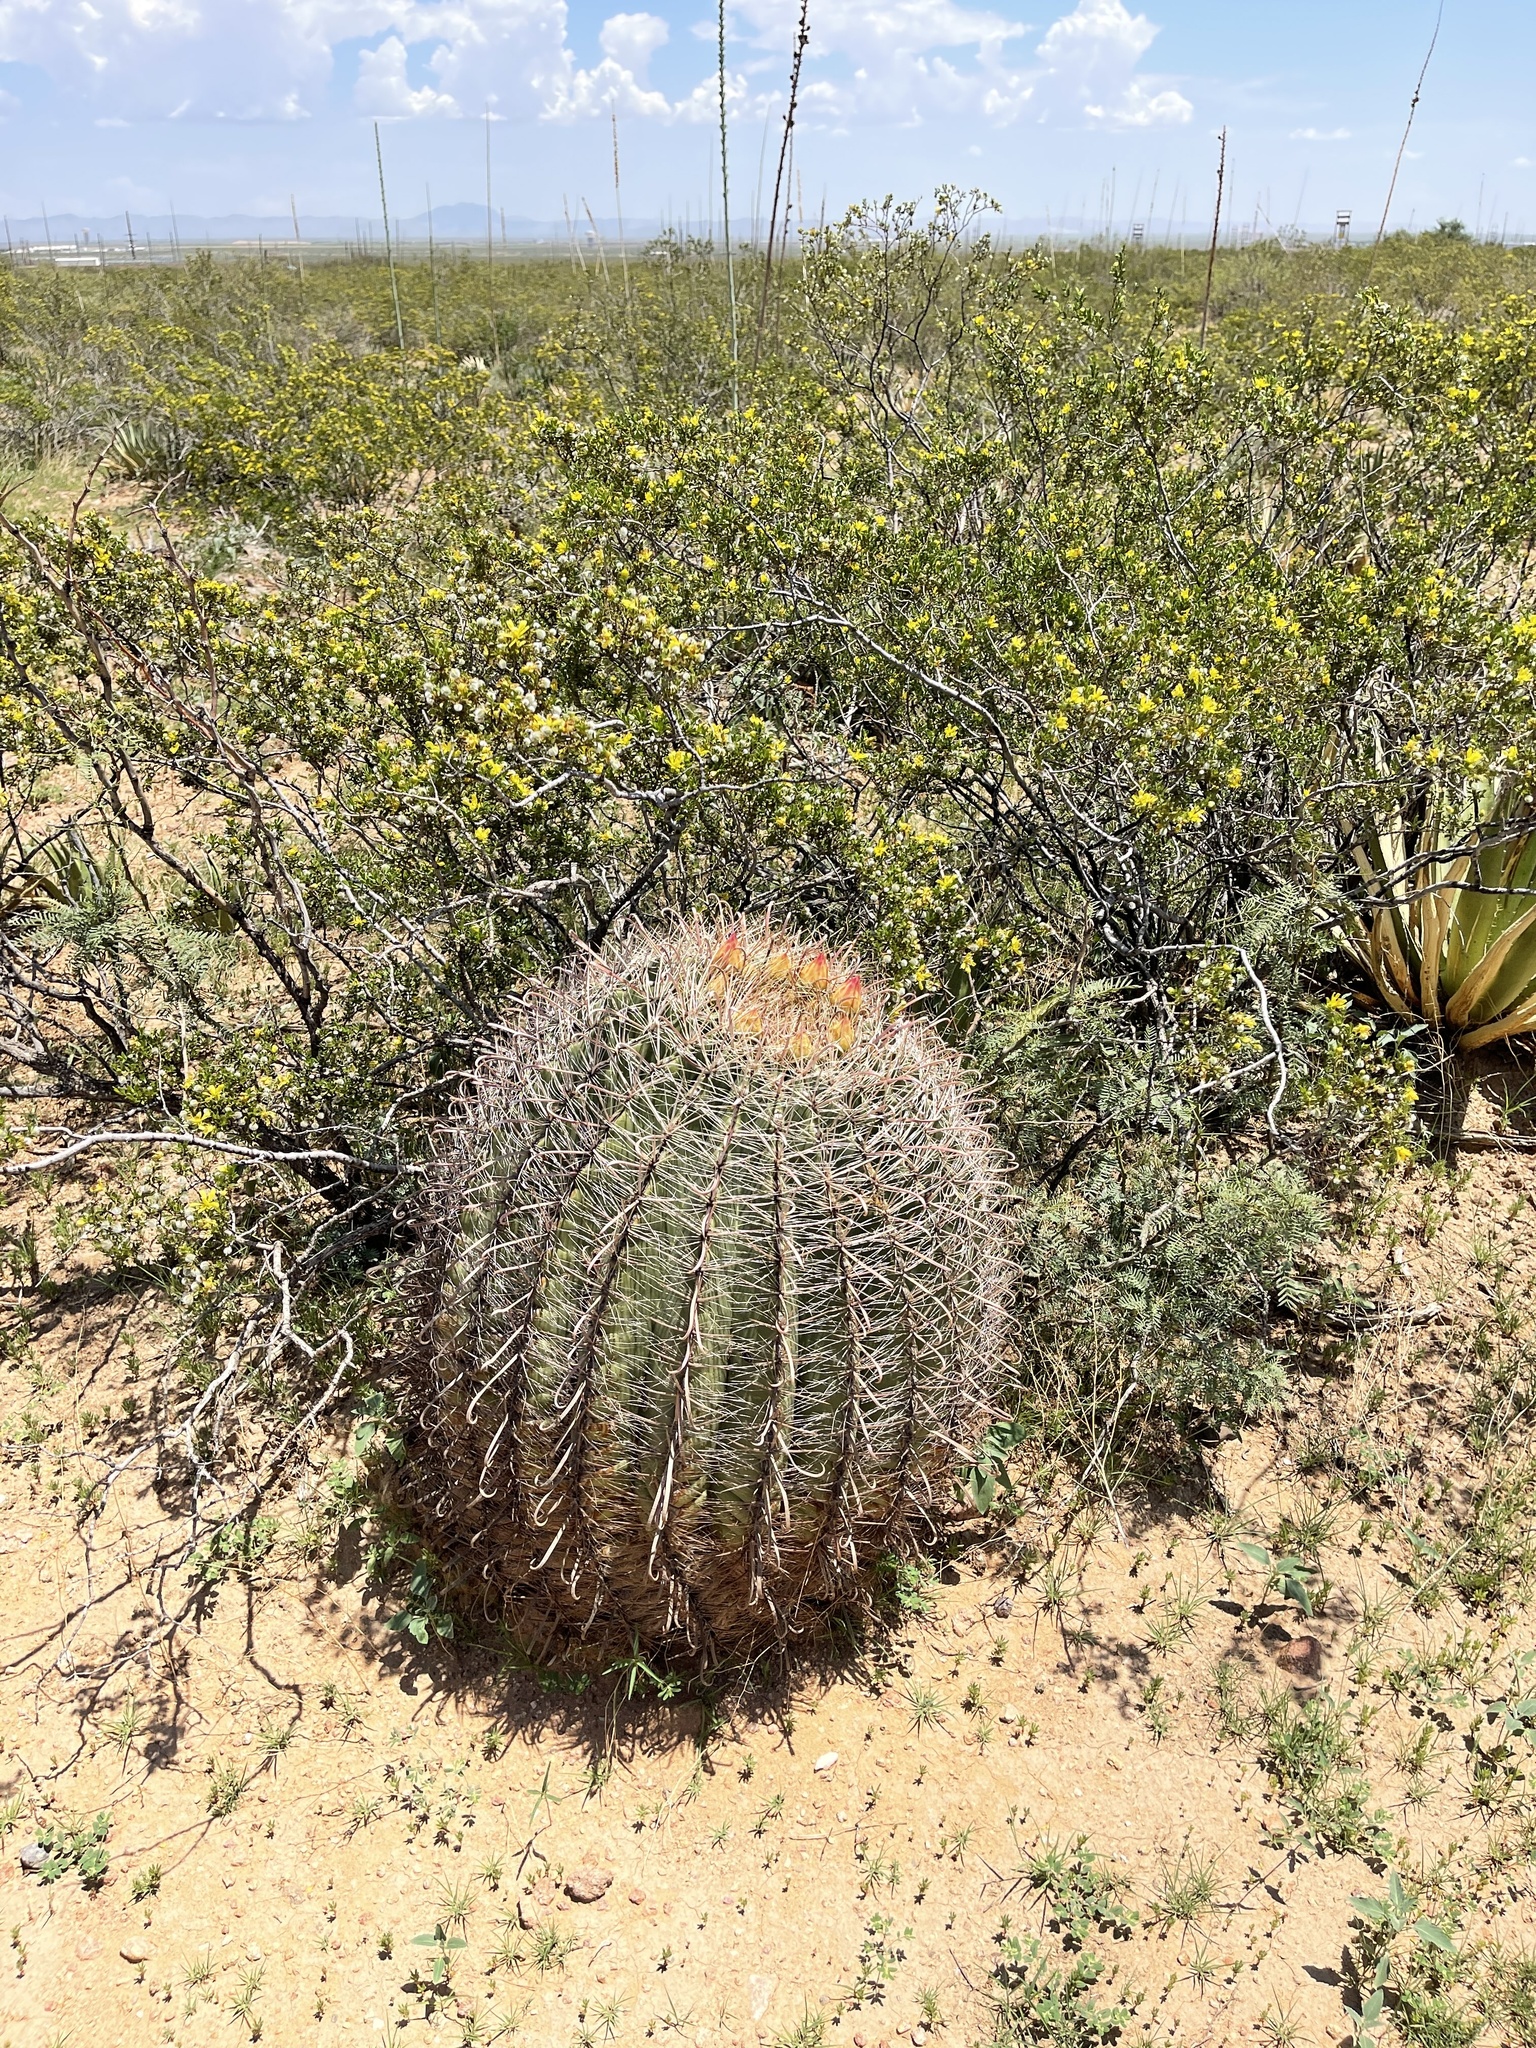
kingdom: Plantae
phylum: Tracheophyta
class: Magnoliopsida
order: Caryophyllales
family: Cactaceae
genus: Ferocactus
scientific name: Ferocactus wislizeni
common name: Candy barrel cactus
